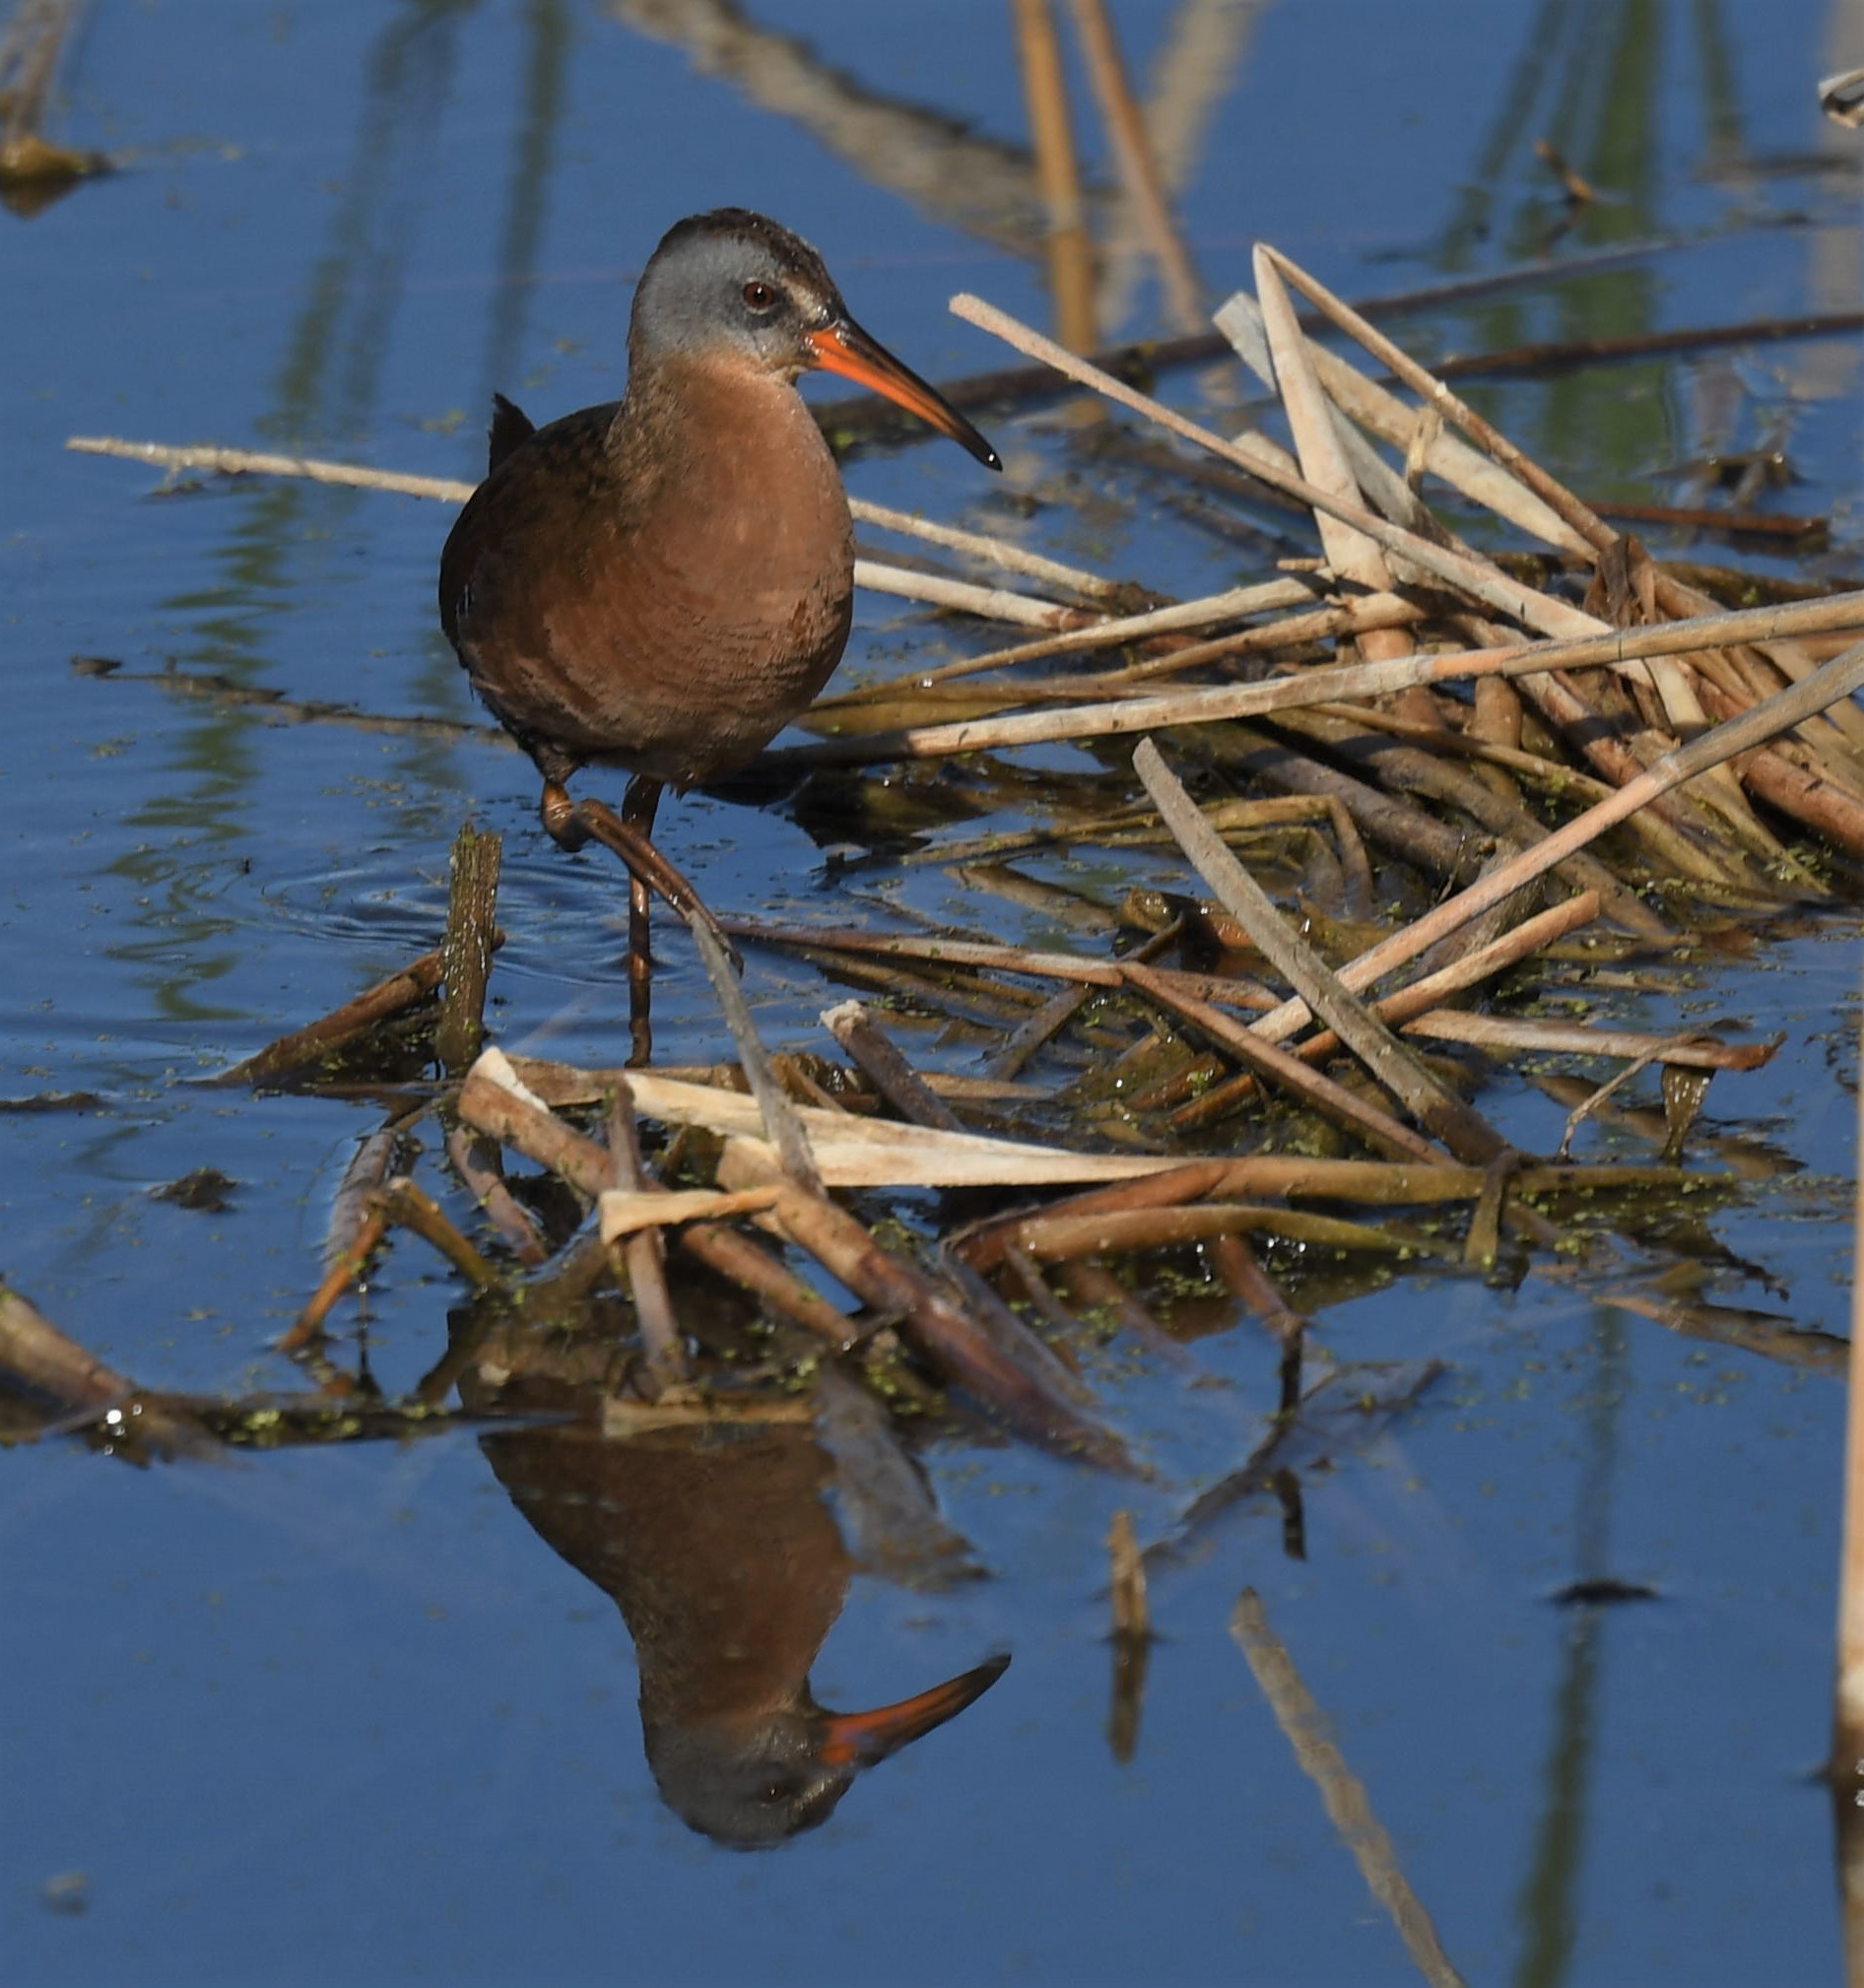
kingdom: Animalia
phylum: Chordata
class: Aves
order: Gruiformes
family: Rallidae
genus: Rallus
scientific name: Rallus limicola
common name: Virginia rail
